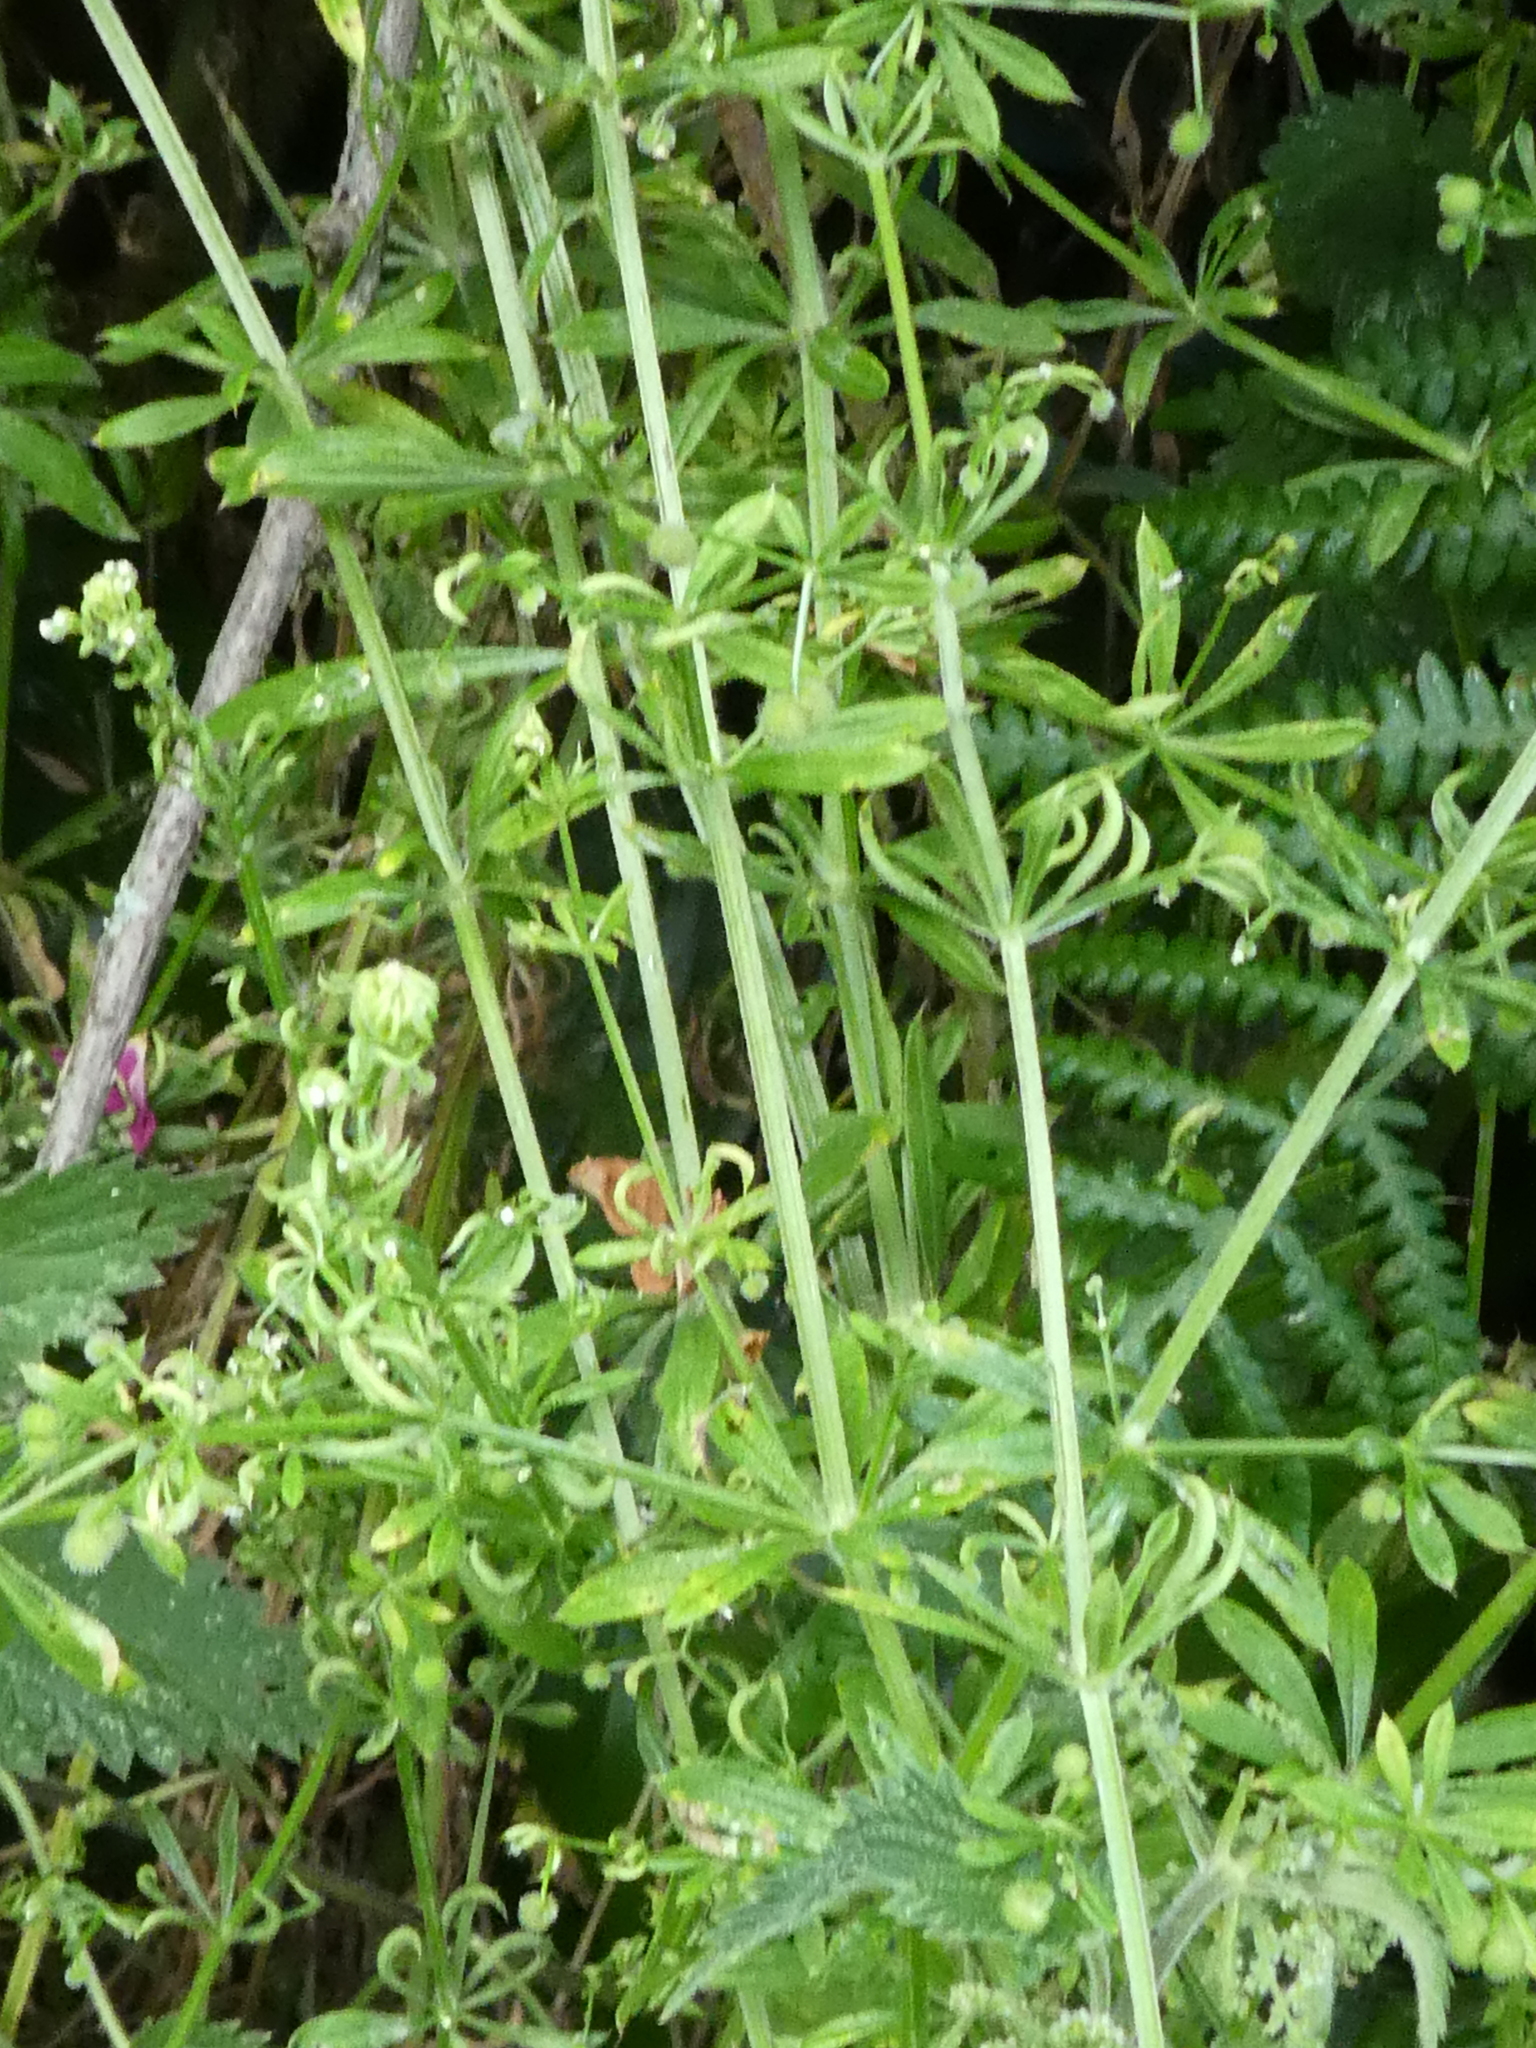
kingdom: Plantae
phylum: Tracheophyta
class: Magnoliopsida
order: Gentianales
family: Rubiaceae
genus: Galium
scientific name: Galium aparine
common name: Cleavers
